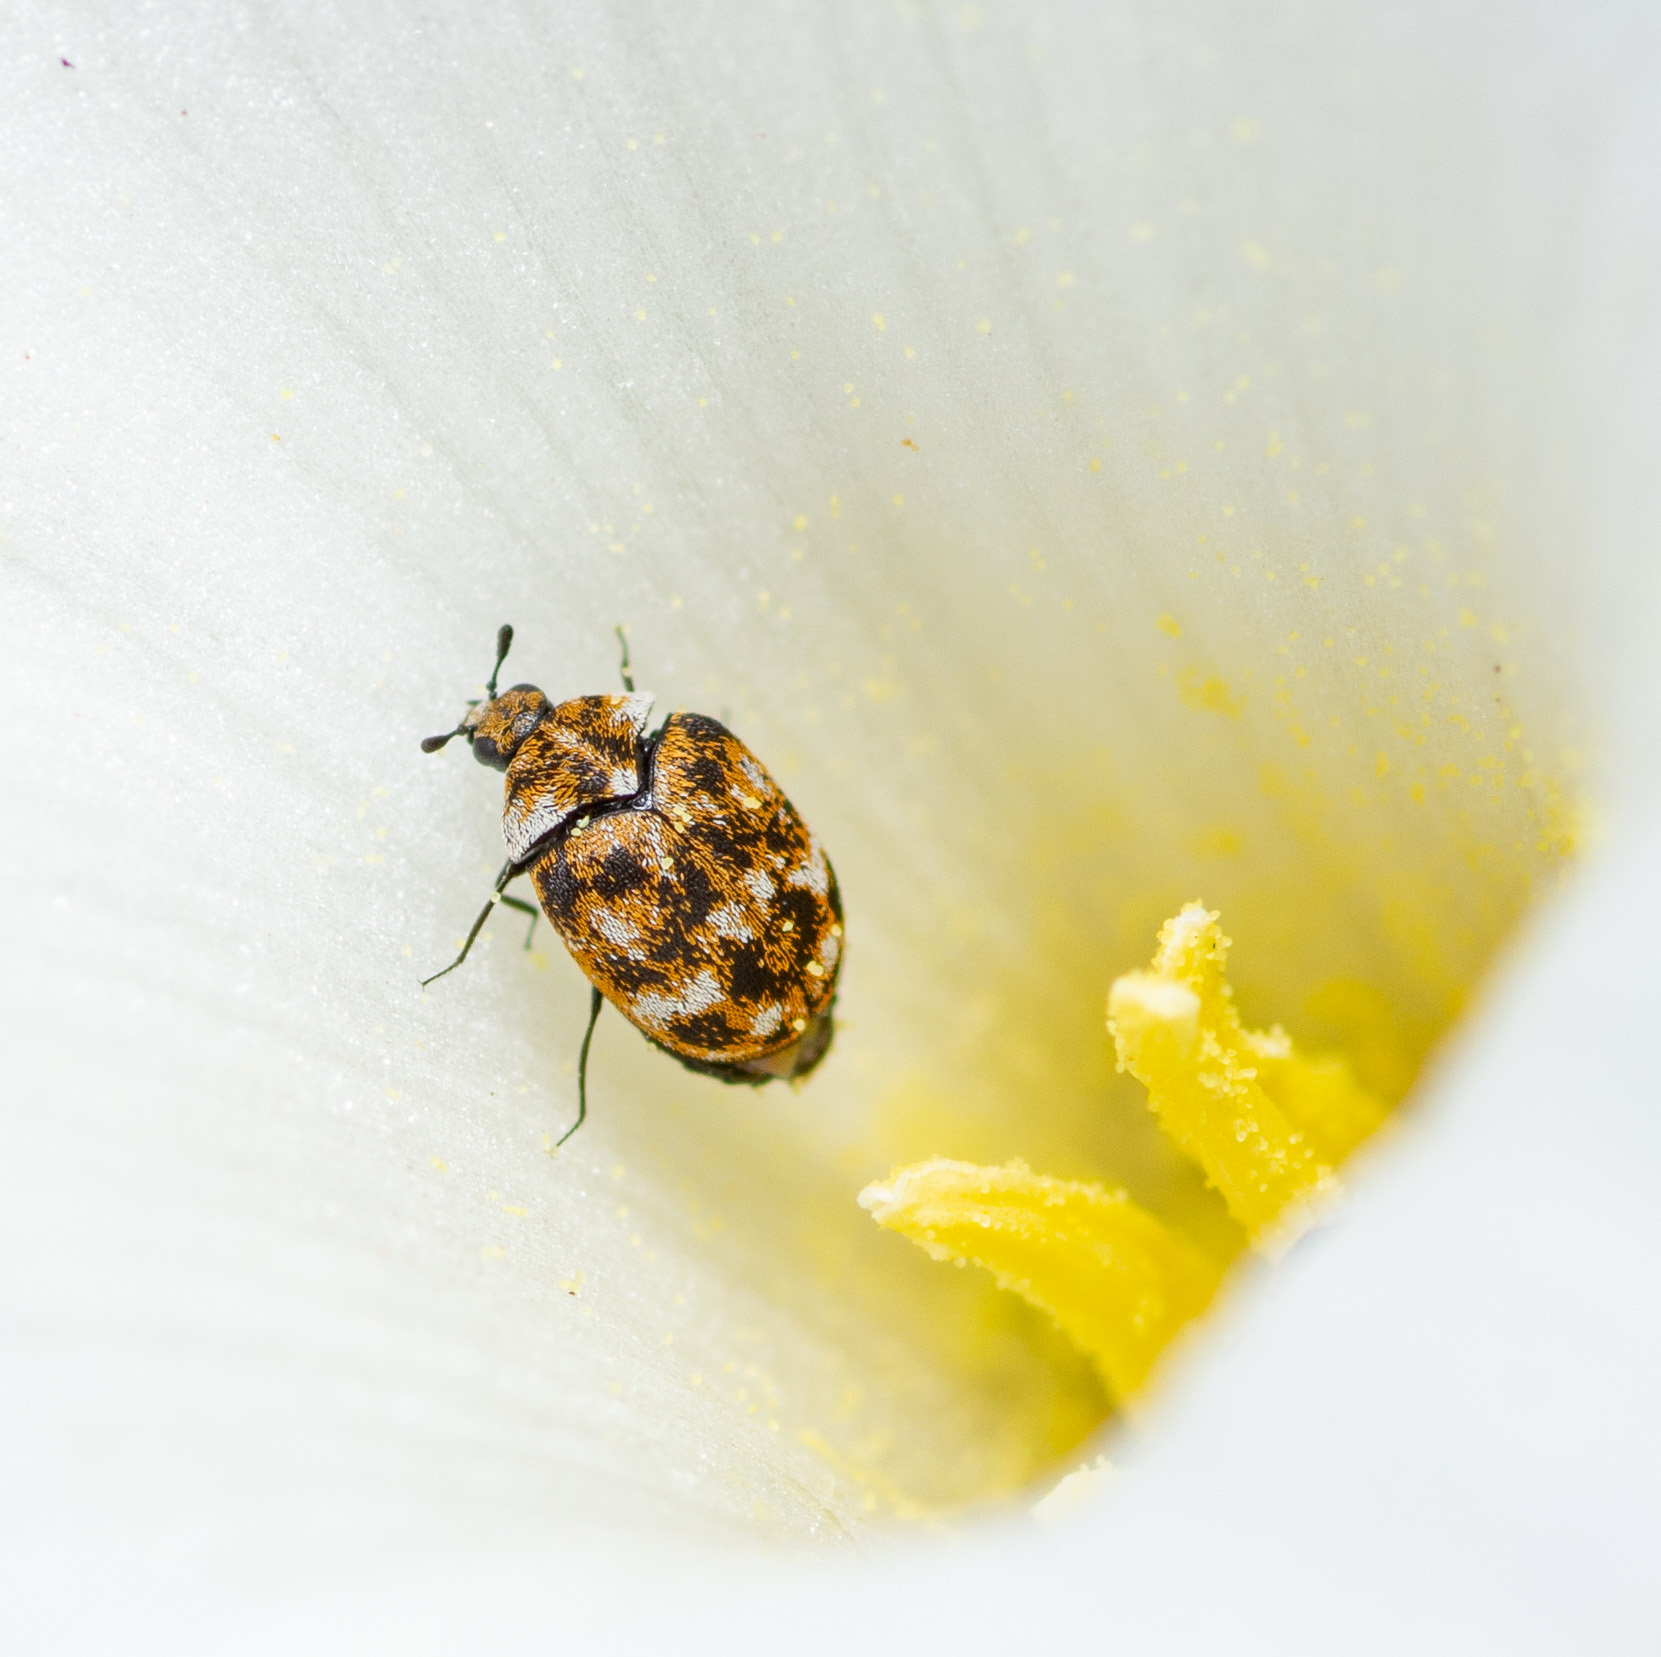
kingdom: Animalia
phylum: Arthropoda
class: Insecta
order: Coleoptera
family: Dermestidae
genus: Anthrenus
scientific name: Anthrenus verbasci
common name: Varied carpet beetle
